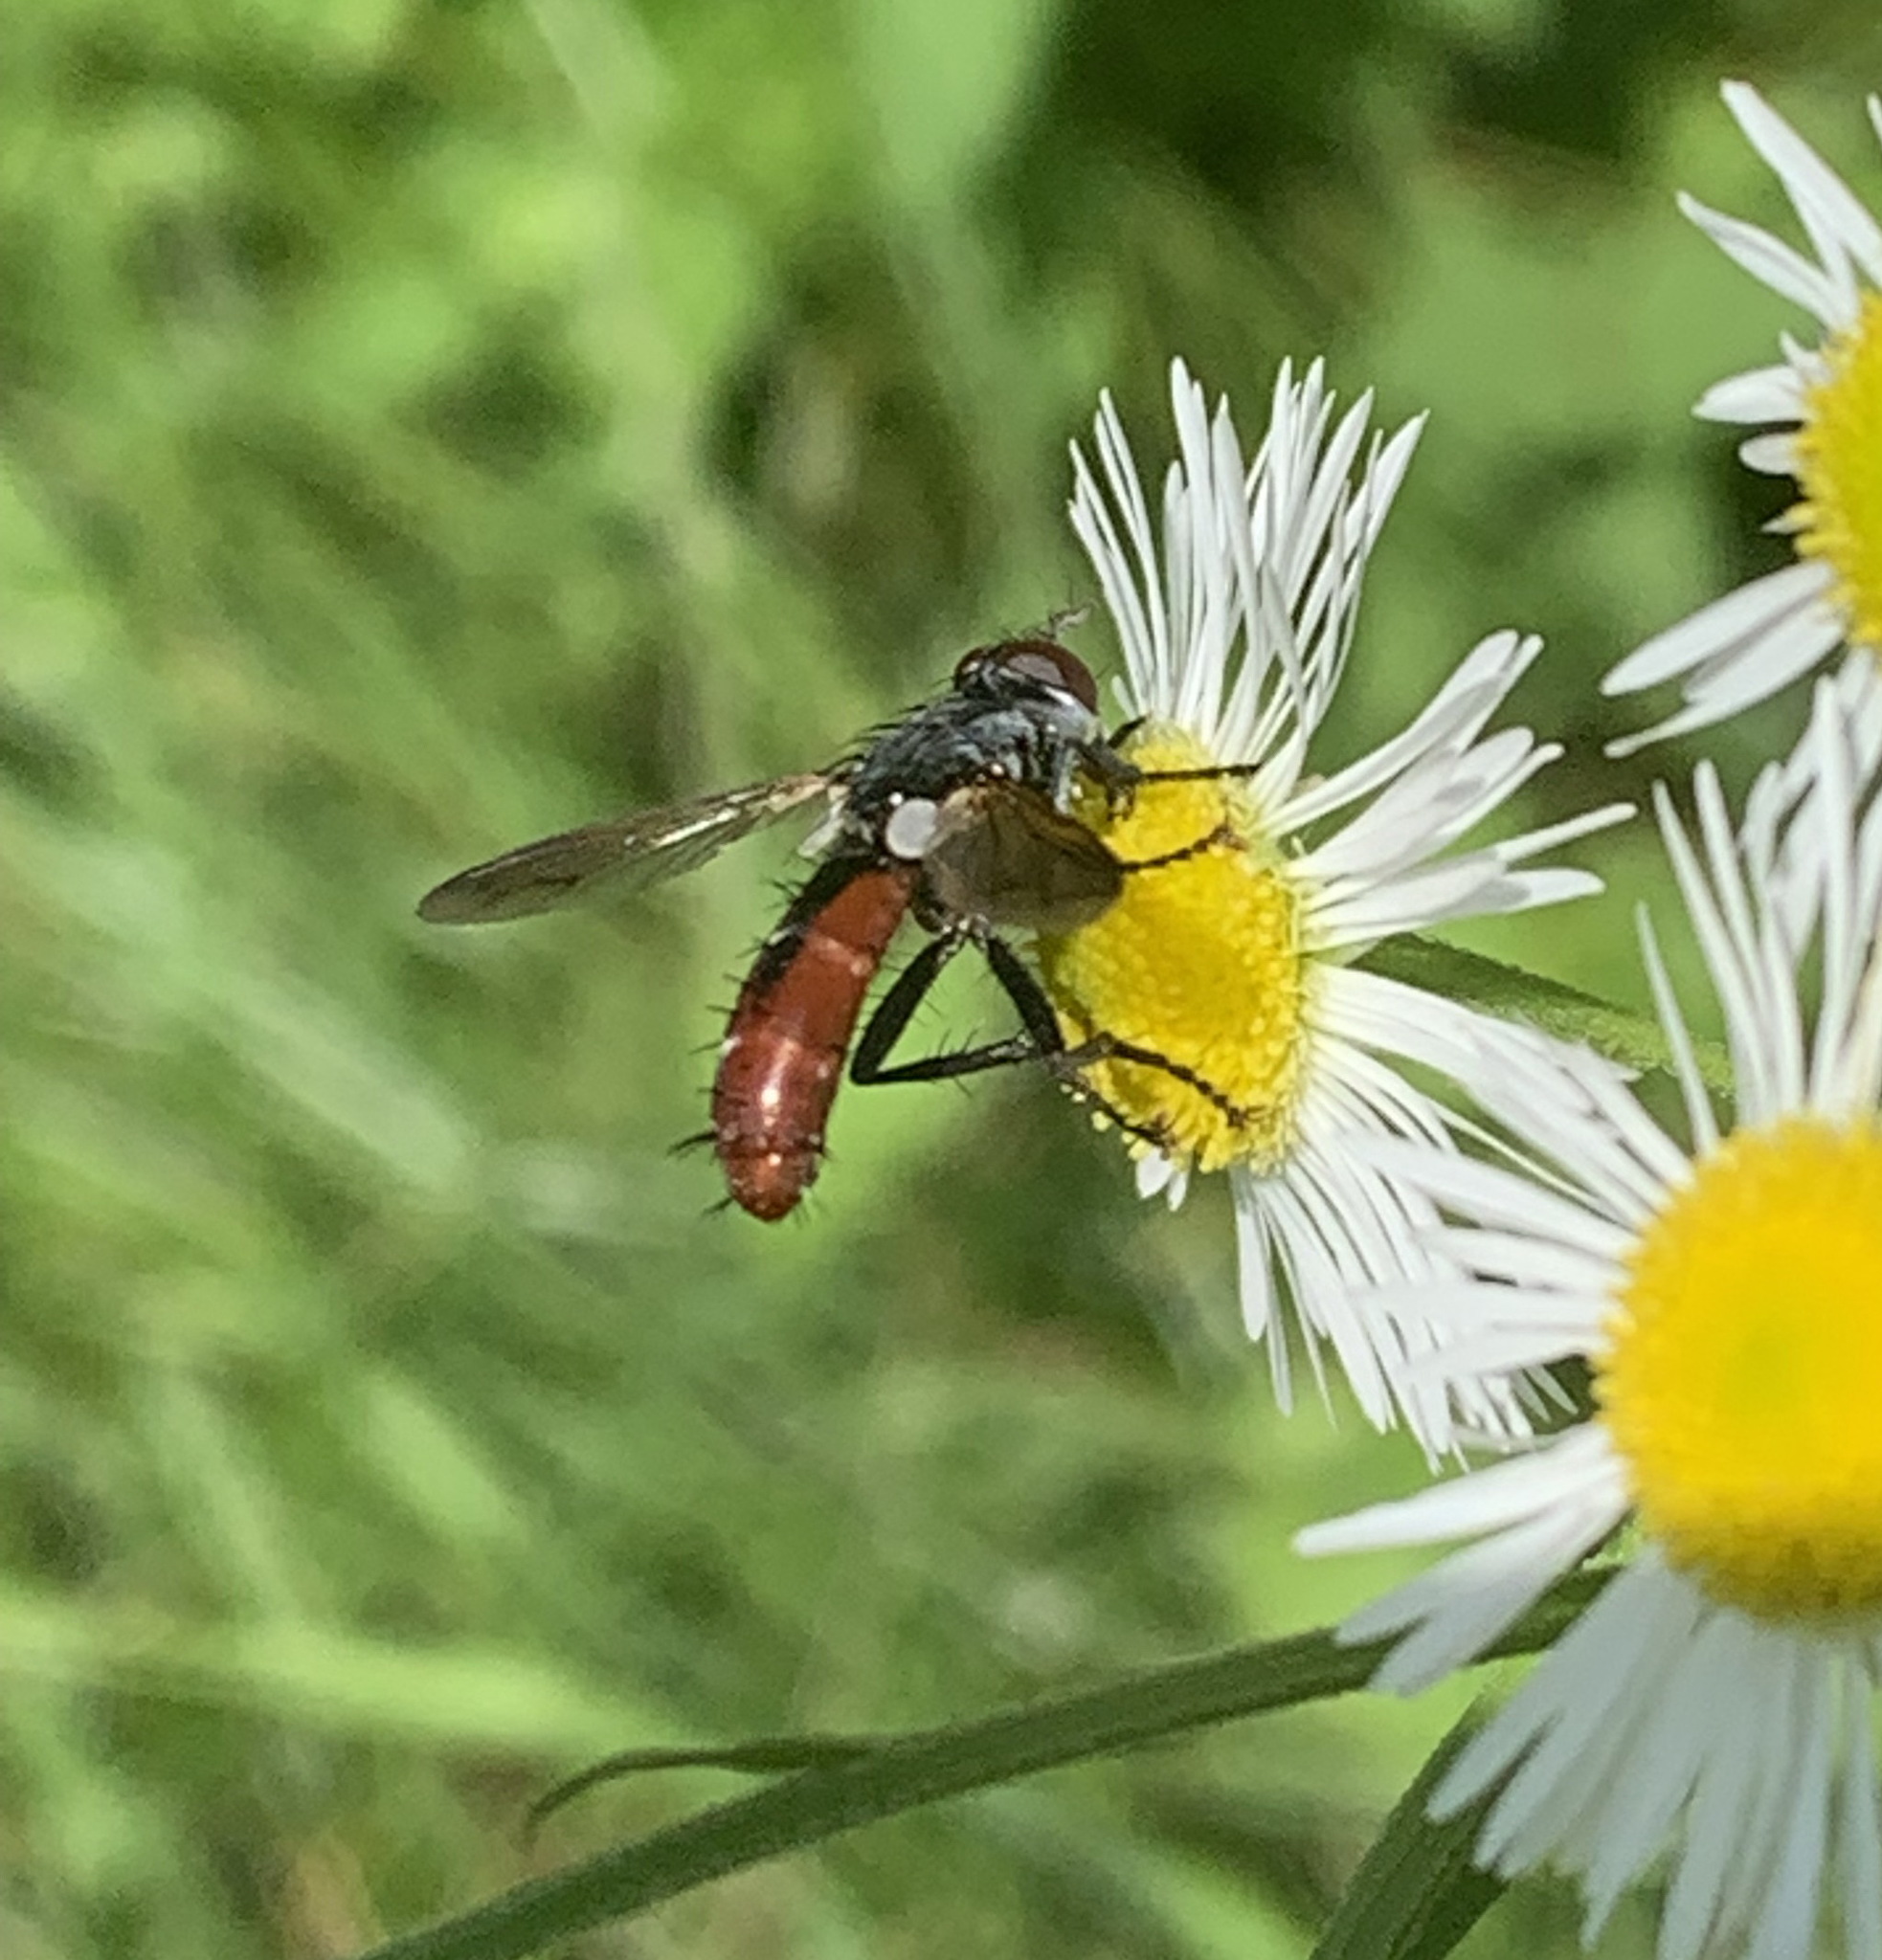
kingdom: Animalia
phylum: Arthropoda
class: Insecta
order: Diptera
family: Tachinidae
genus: Cylindromyia
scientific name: Cylindromyia bicolor
